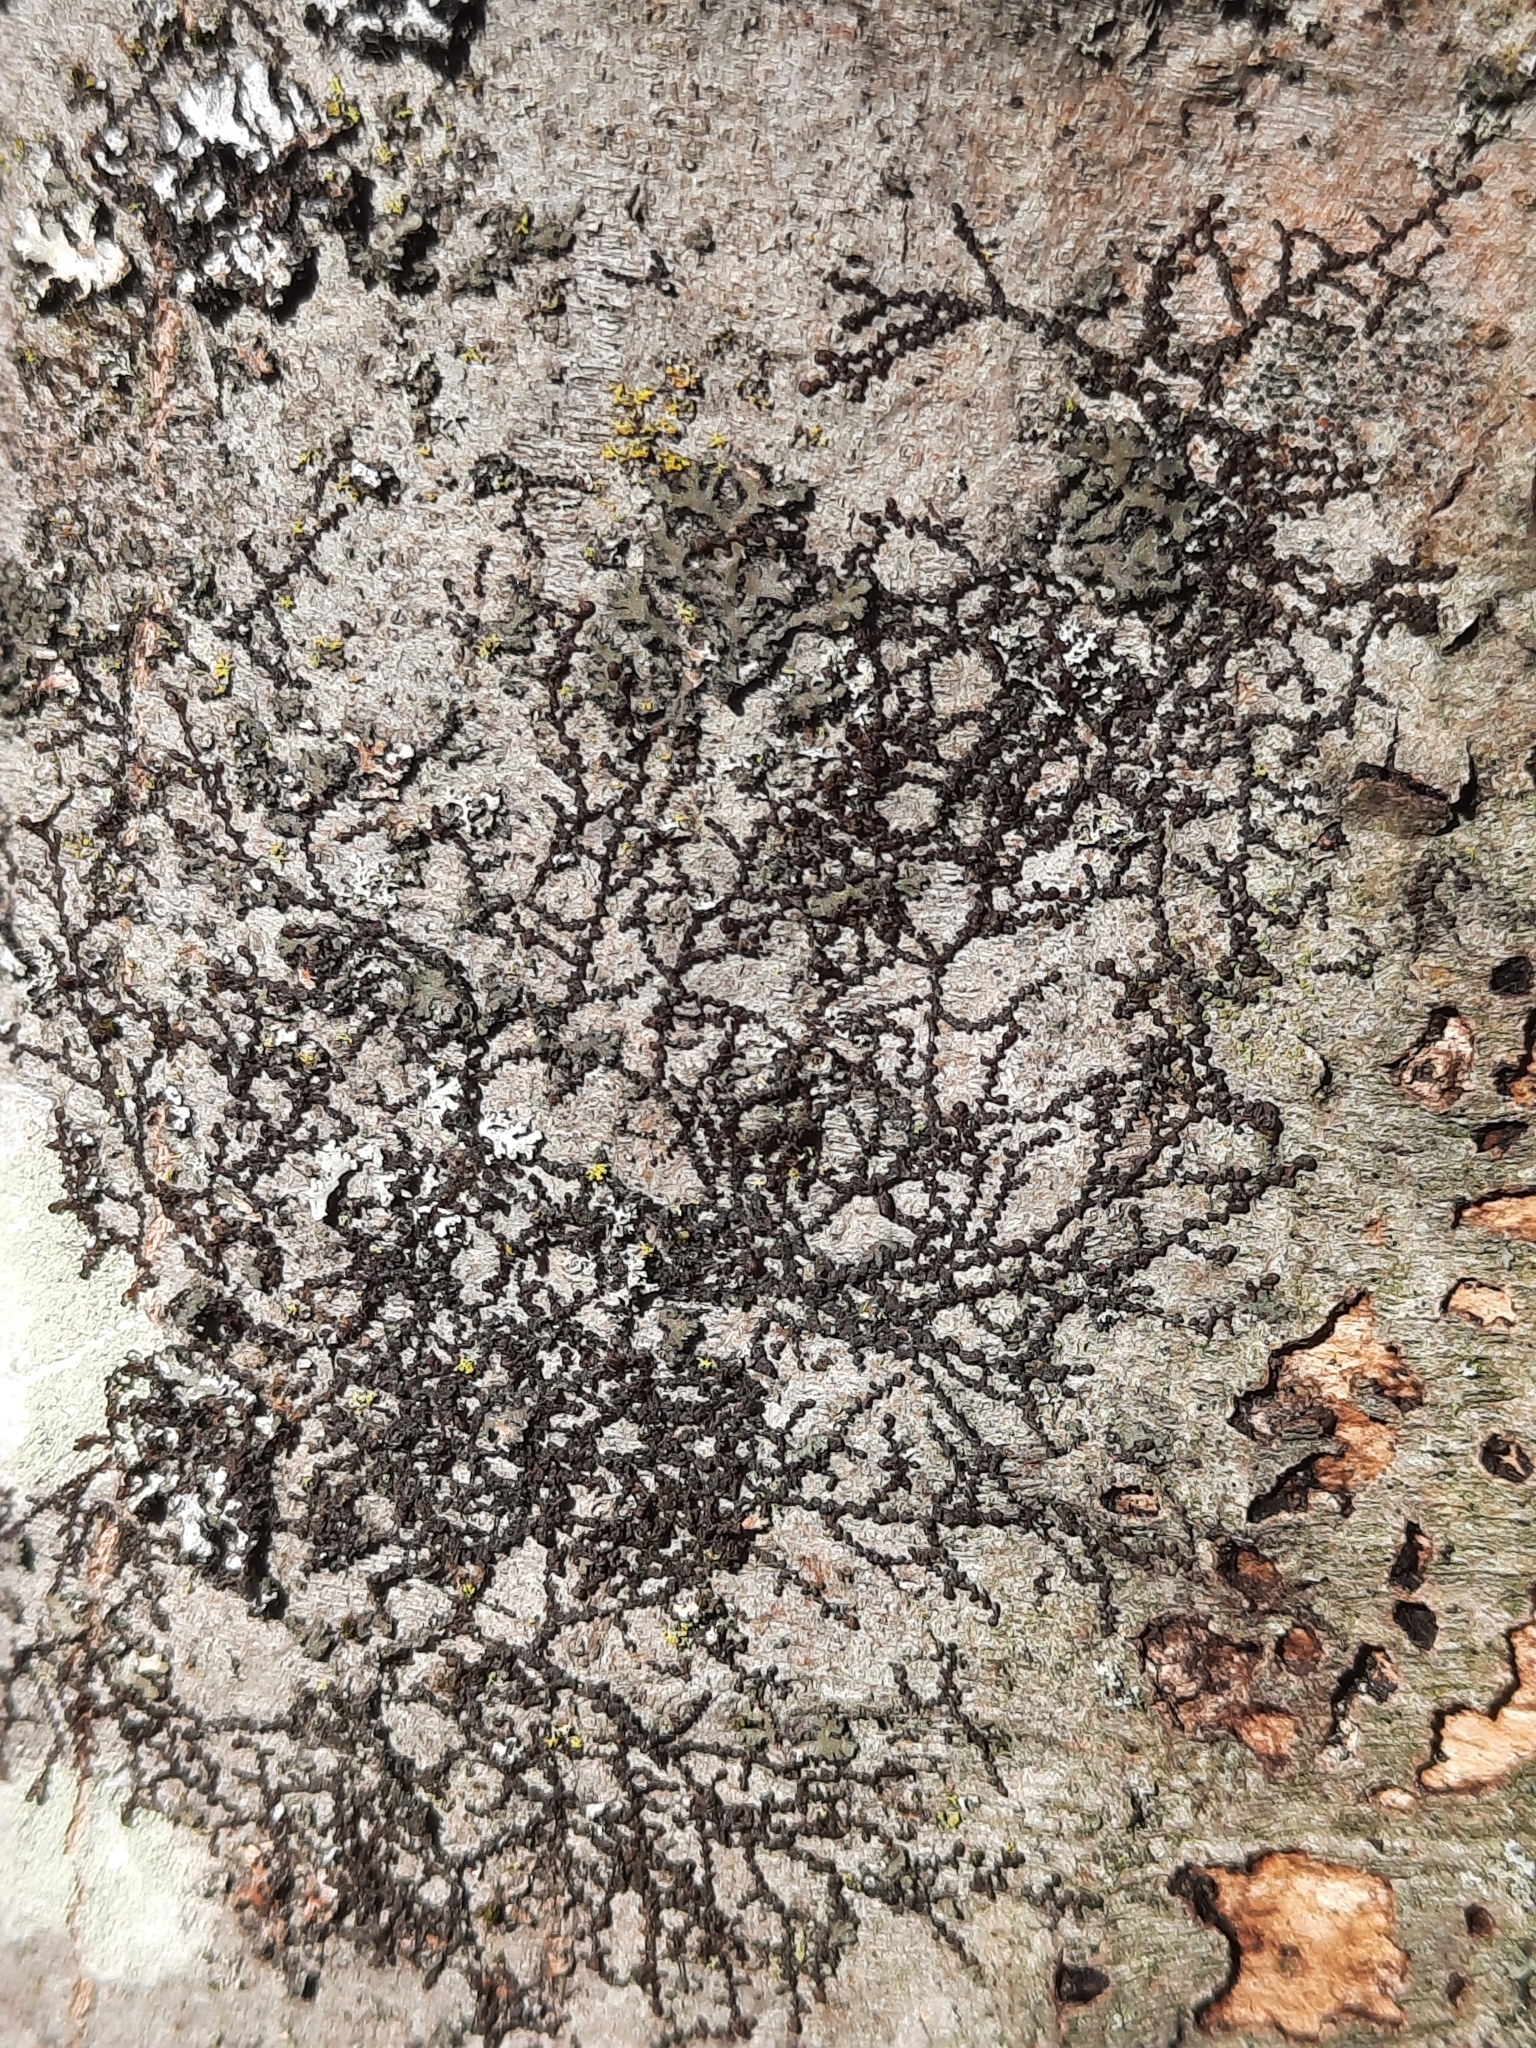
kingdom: Plantae
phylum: Marchantiophyta
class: Jungermanniopsida
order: Porellales
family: Frullaniaceae
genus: Frullania
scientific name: Frullania eboracensis
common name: New york scalewort
